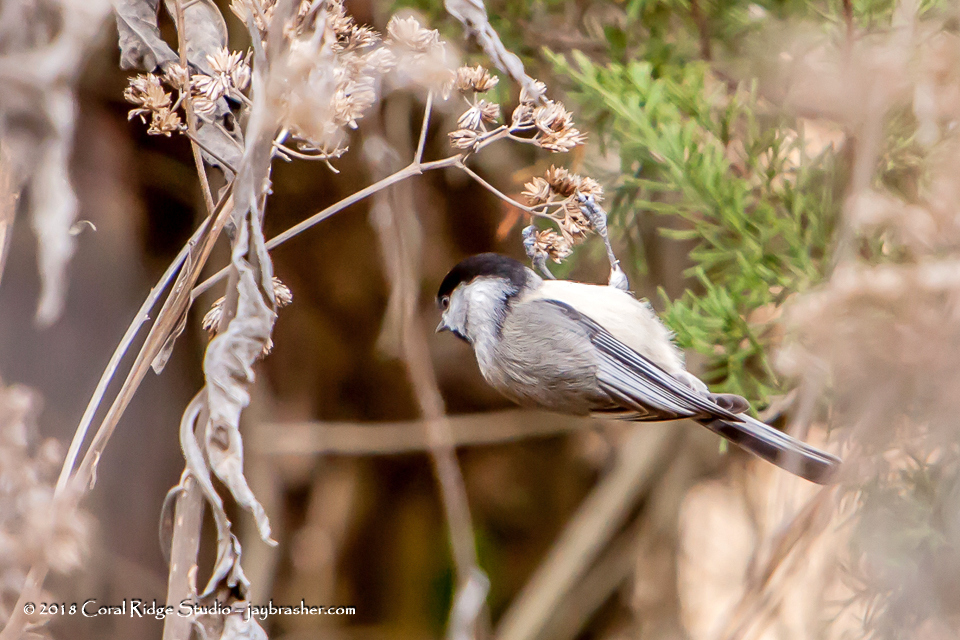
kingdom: Animalia
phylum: Chordata
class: Aves
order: Passeriformes
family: Paridae
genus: Poecile
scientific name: Poecile carolinensis
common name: Carolina chickadee
